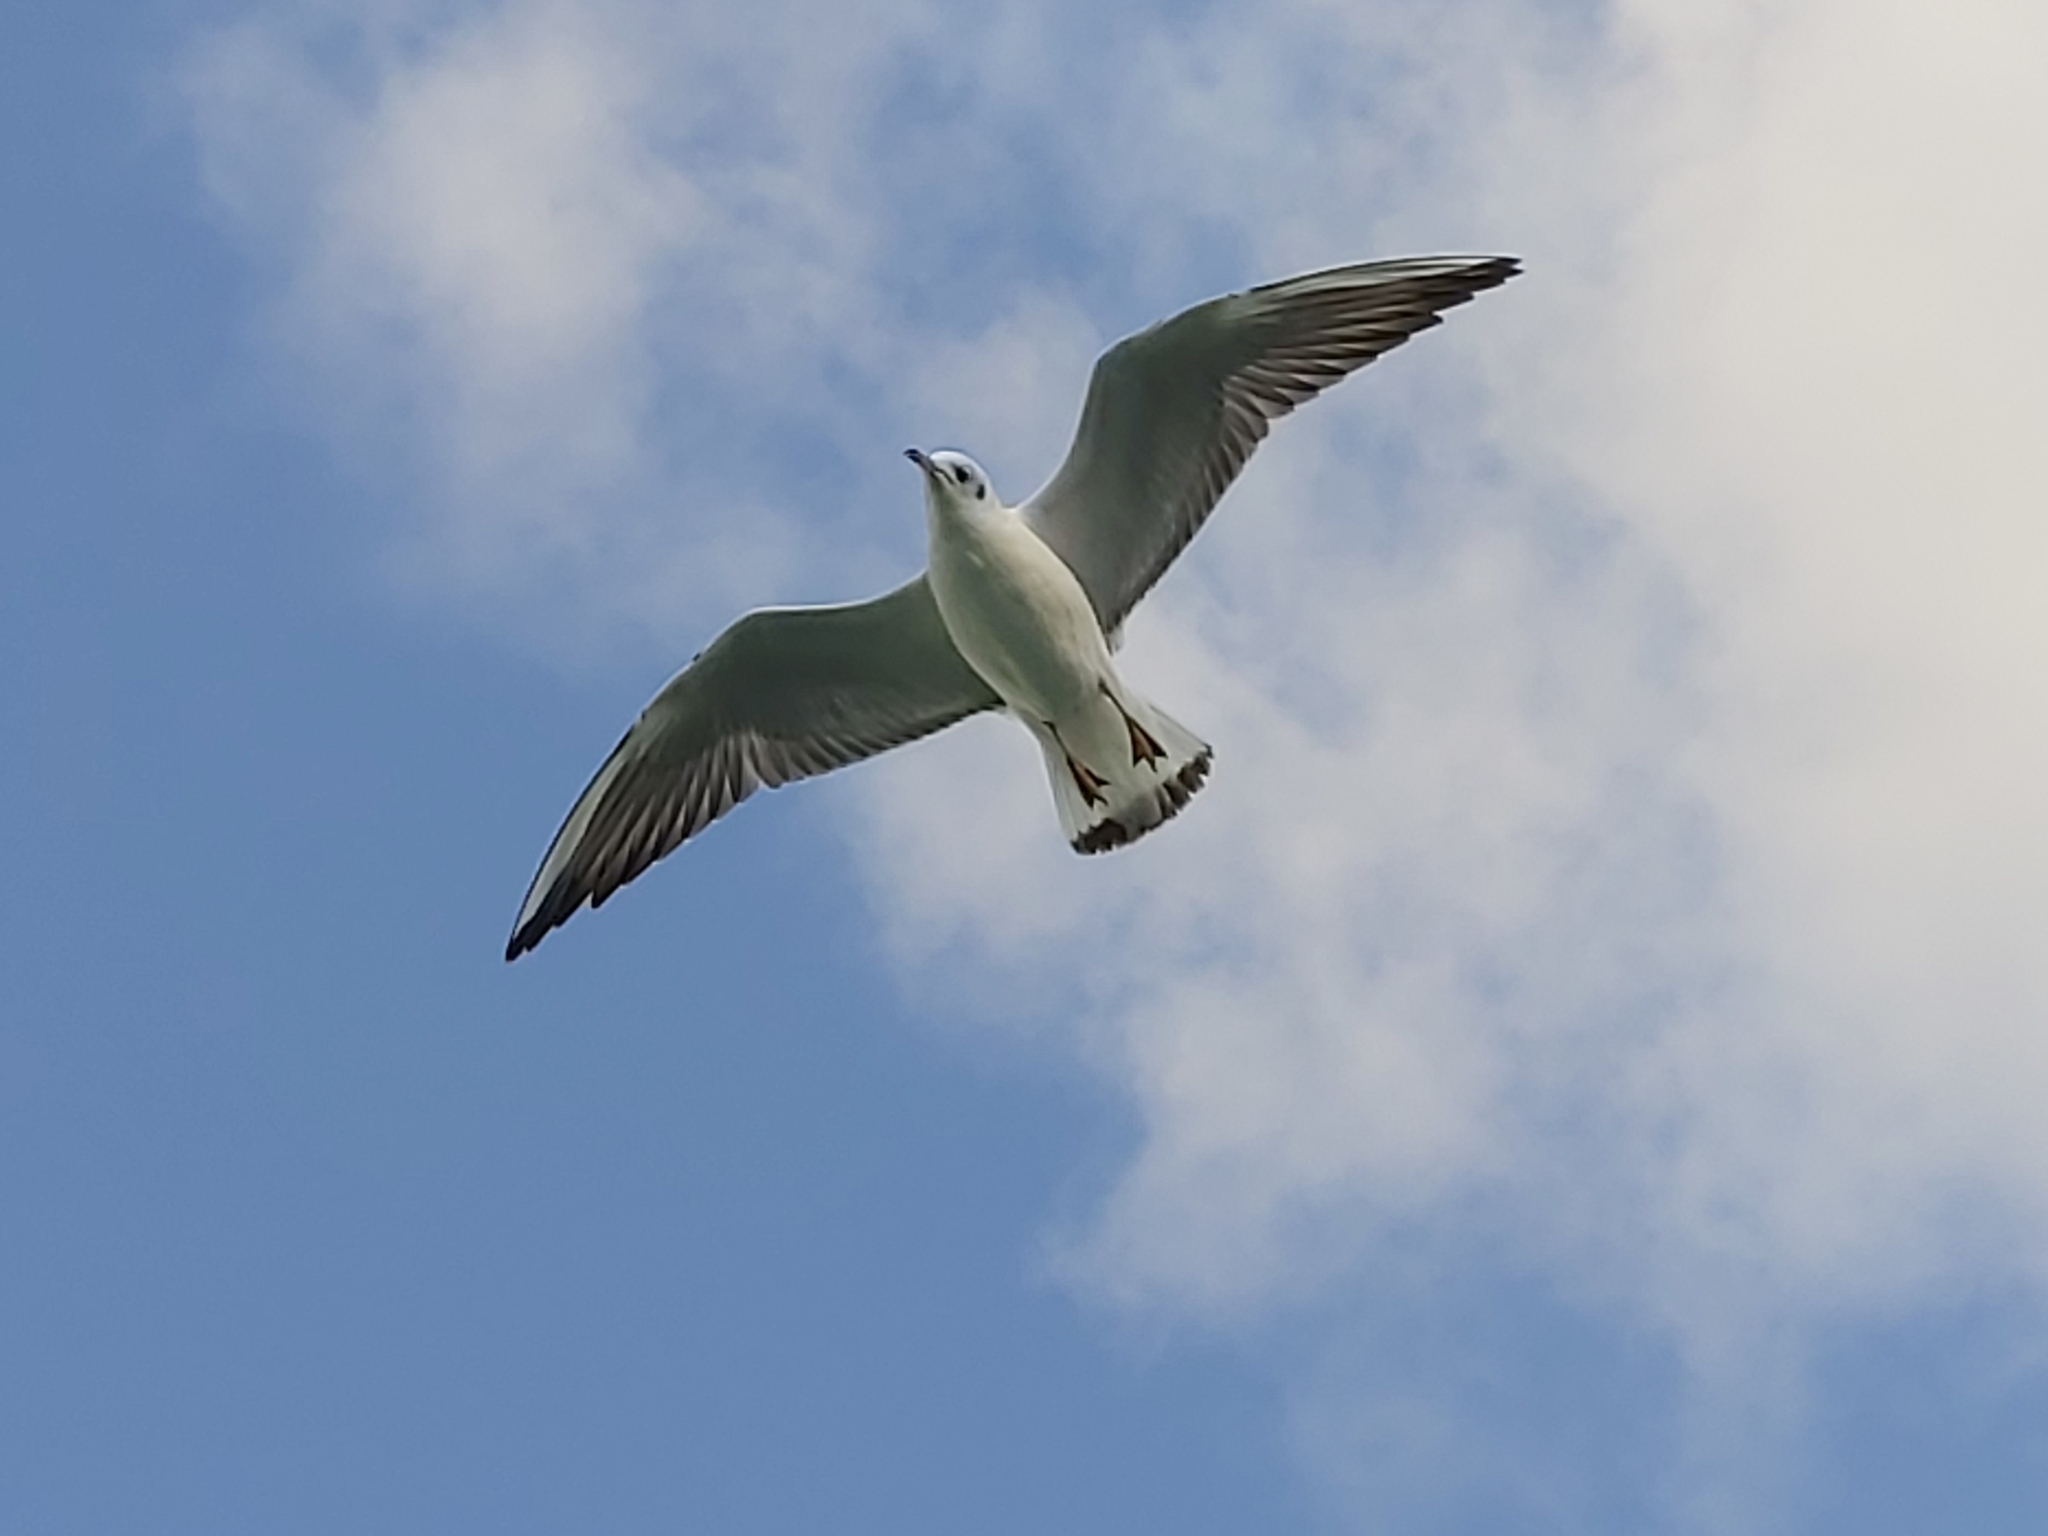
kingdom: Animalia
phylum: Chordata
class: Aves
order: Charadriiformes
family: Laridae
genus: Chroicocephalus
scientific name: Chroicocephalus ridibundus
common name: Black-headed gull
